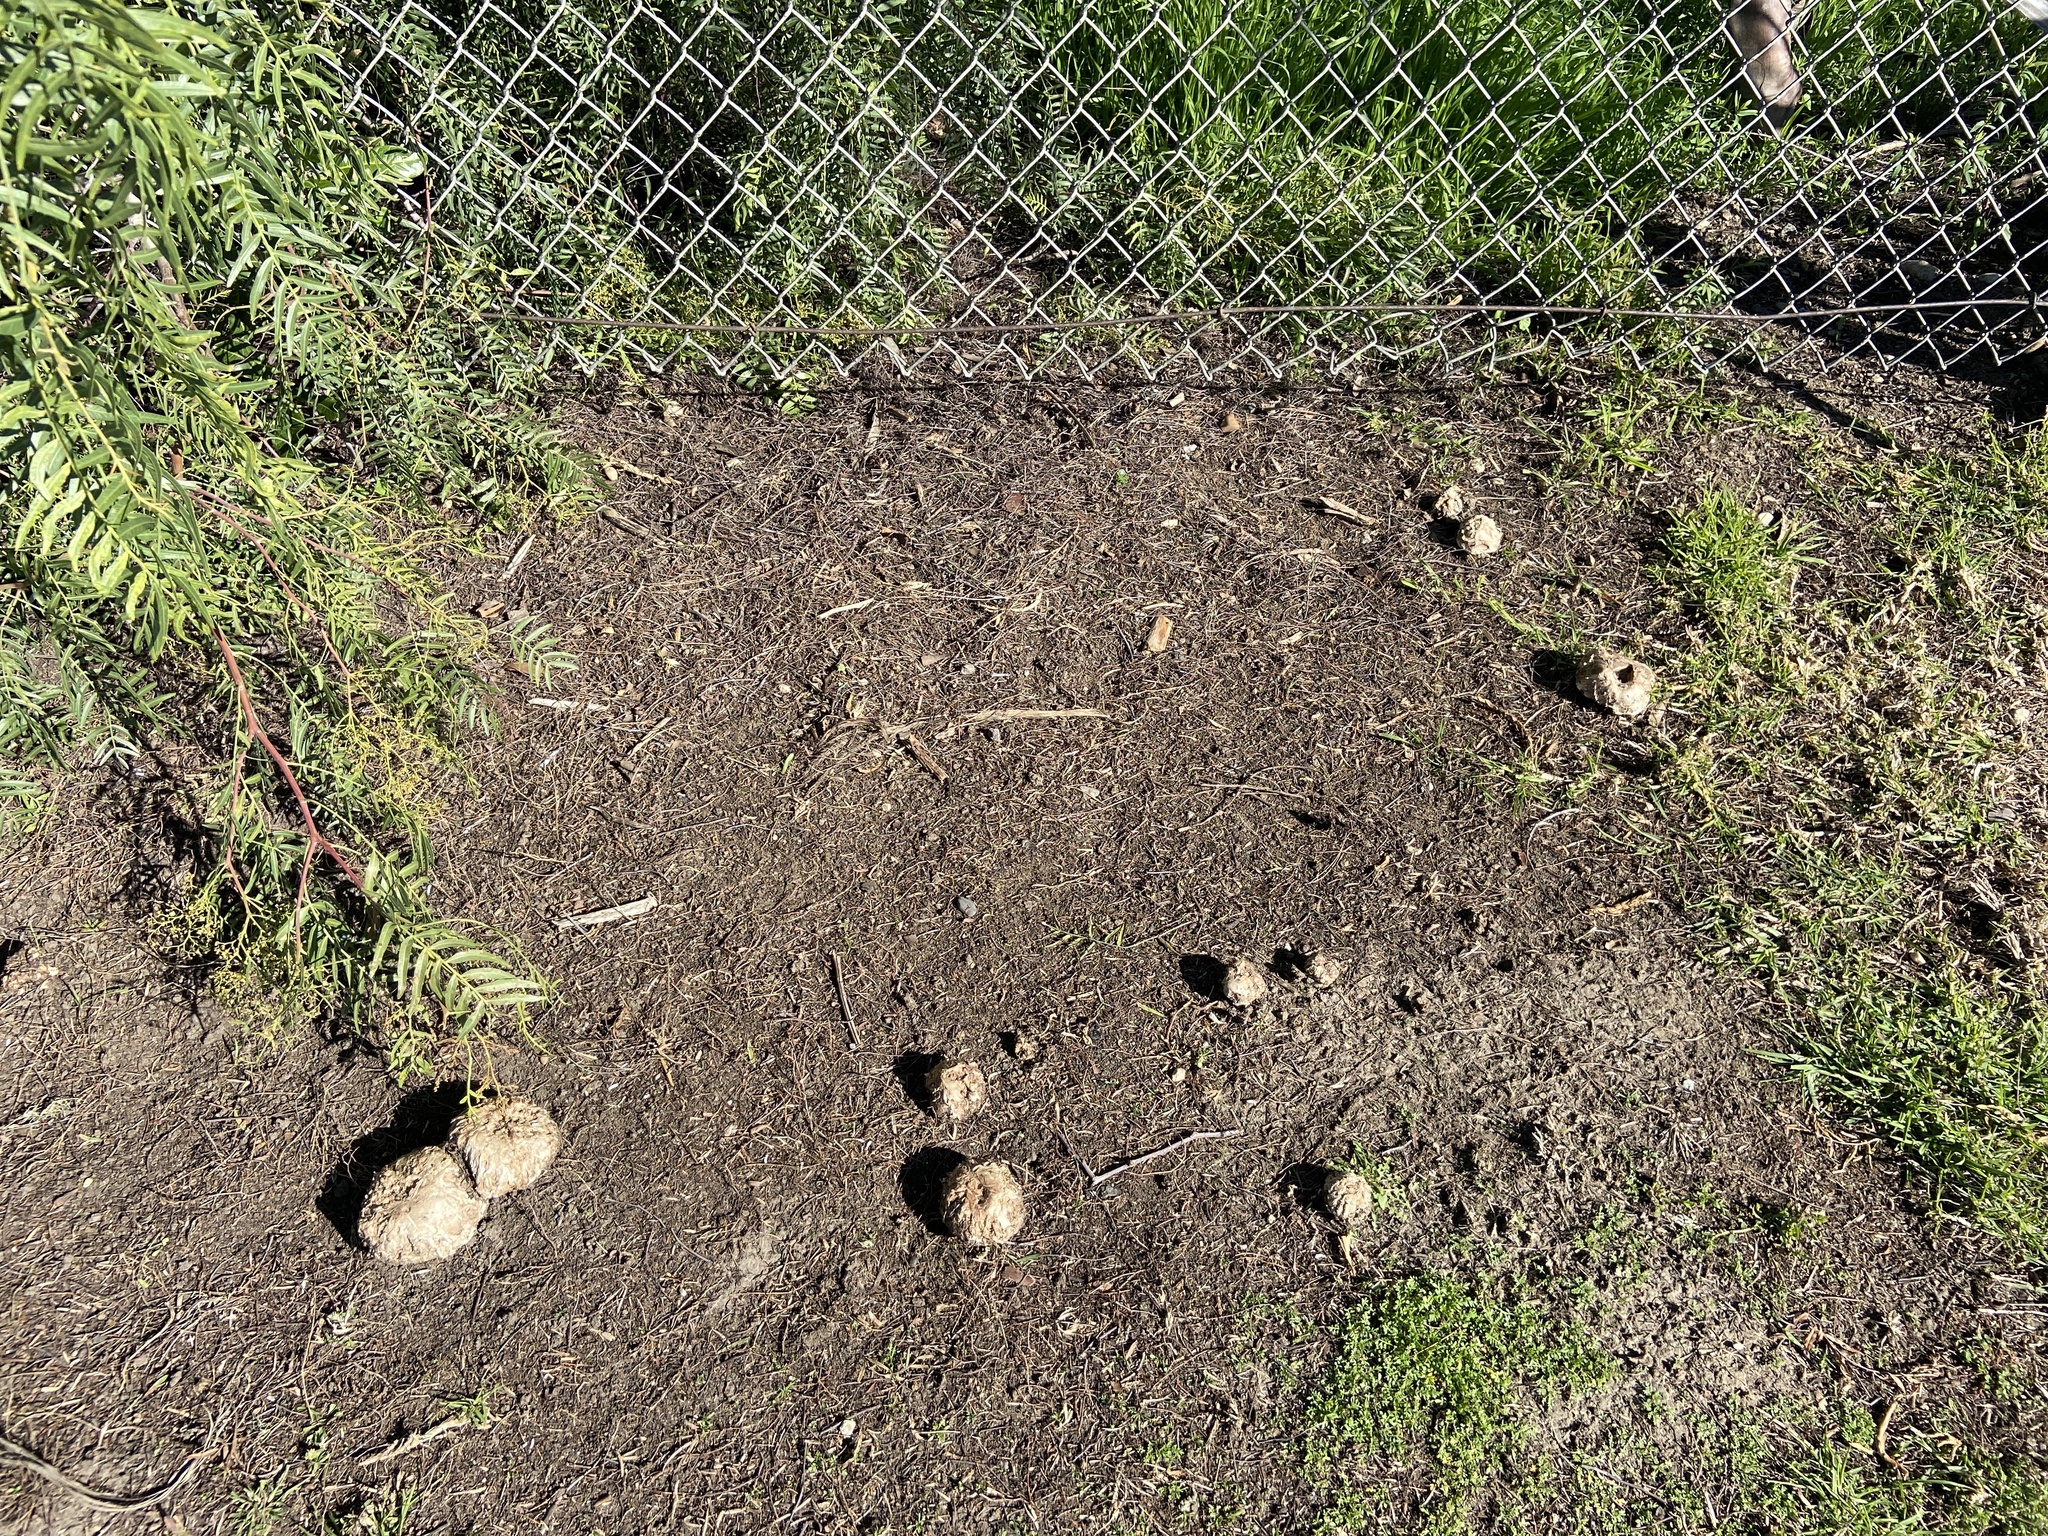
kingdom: Fungi
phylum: Basidiomycota
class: Agaricomycetes
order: Agaricales
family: Agaricaceae
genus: Agaricus
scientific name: Agaricus bernardii
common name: Salty mushroom
